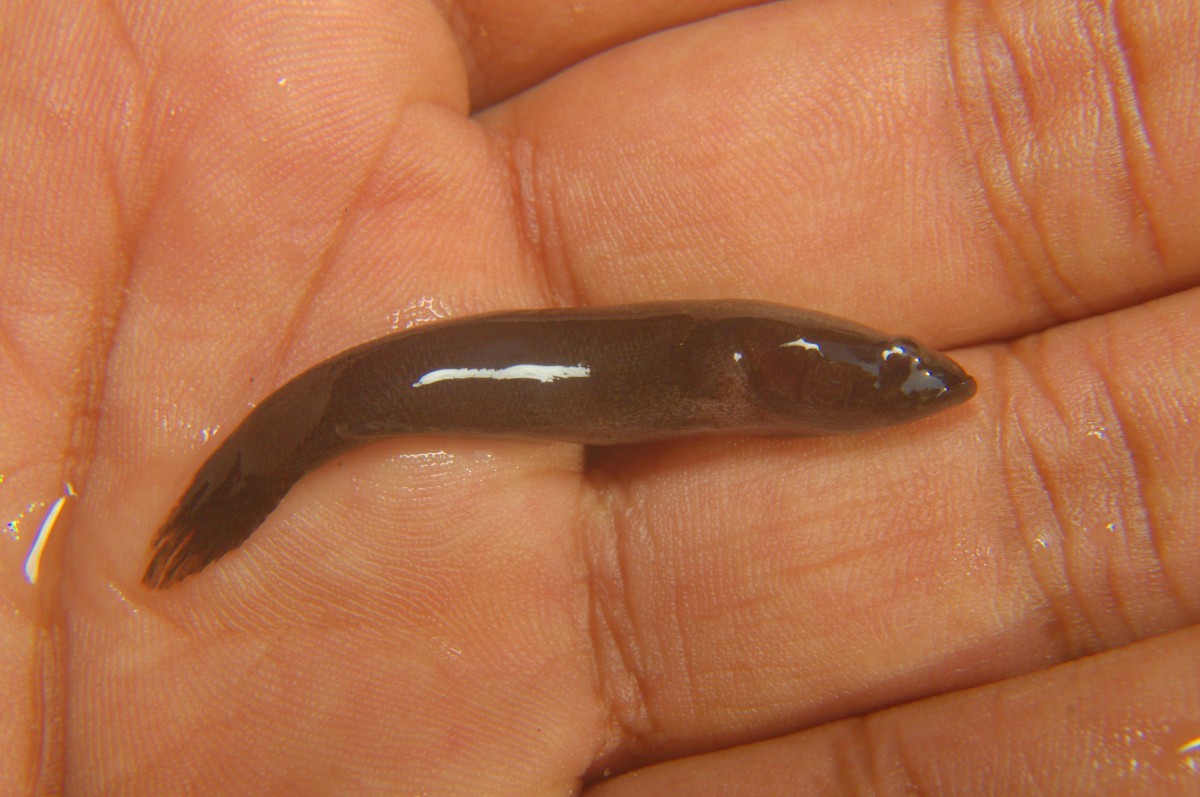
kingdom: Animalia
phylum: Chordata
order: Perciformes
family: Eleotridae
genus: Eleotris
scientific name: Eleotris fusca
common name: Brown gudgeon
